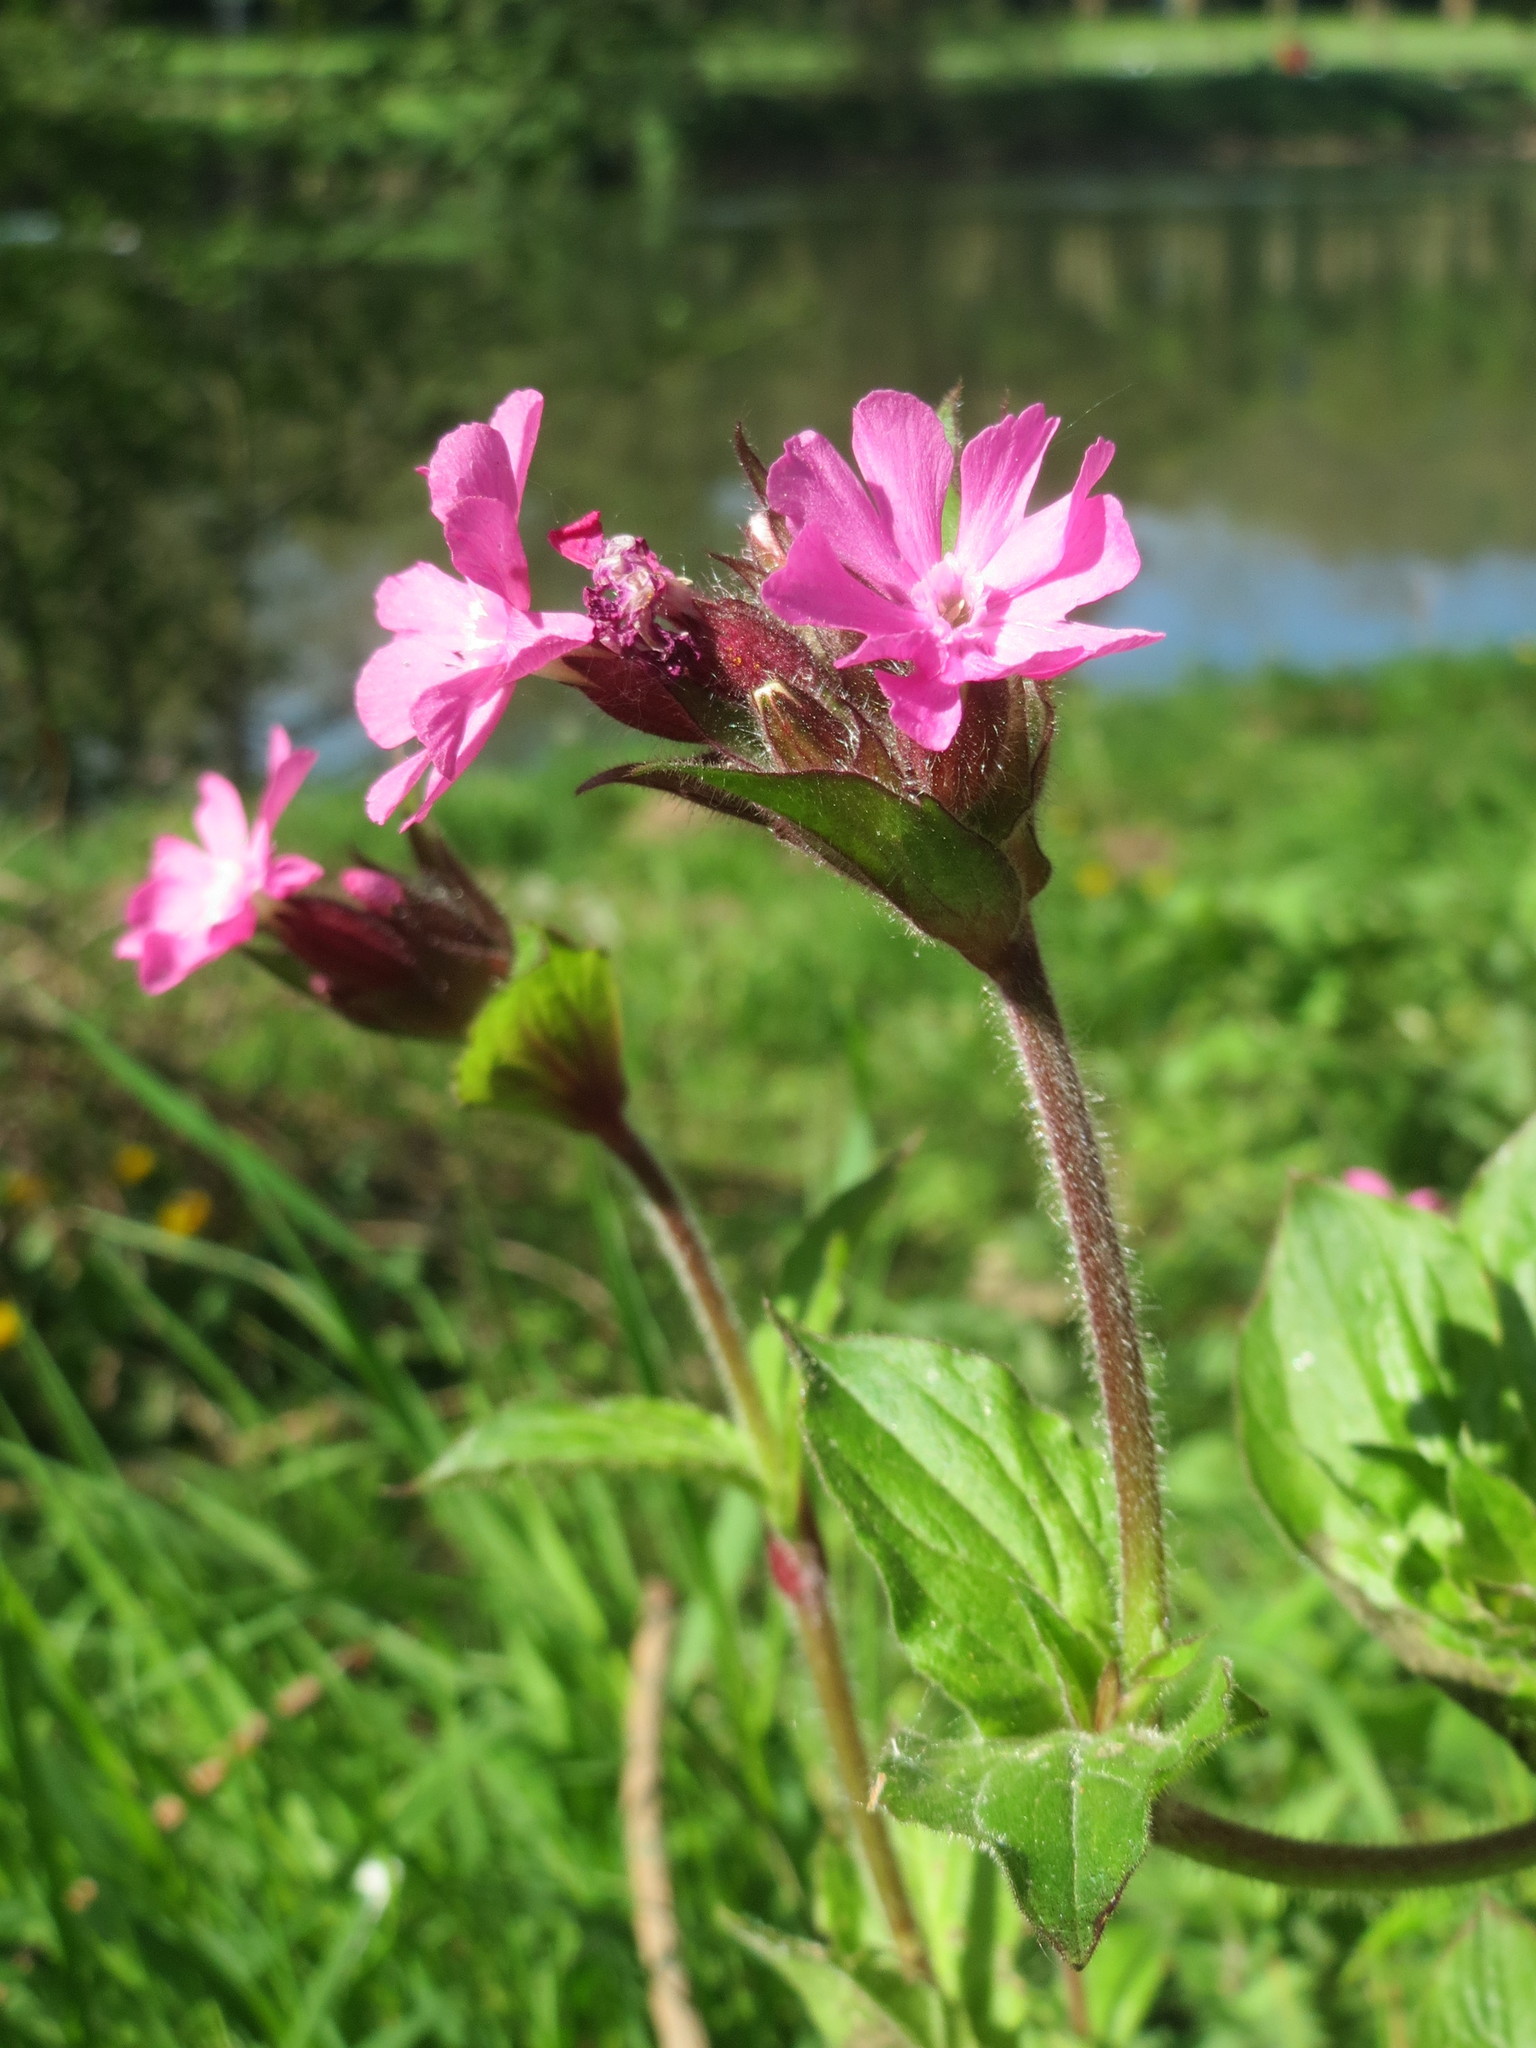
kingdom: Plantae
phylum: Tracheophyta
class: Magnoliopsida
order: Caryophyllales
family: Caryophyllaceae
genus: Silene
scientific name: Silene dioica
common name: Red campion
